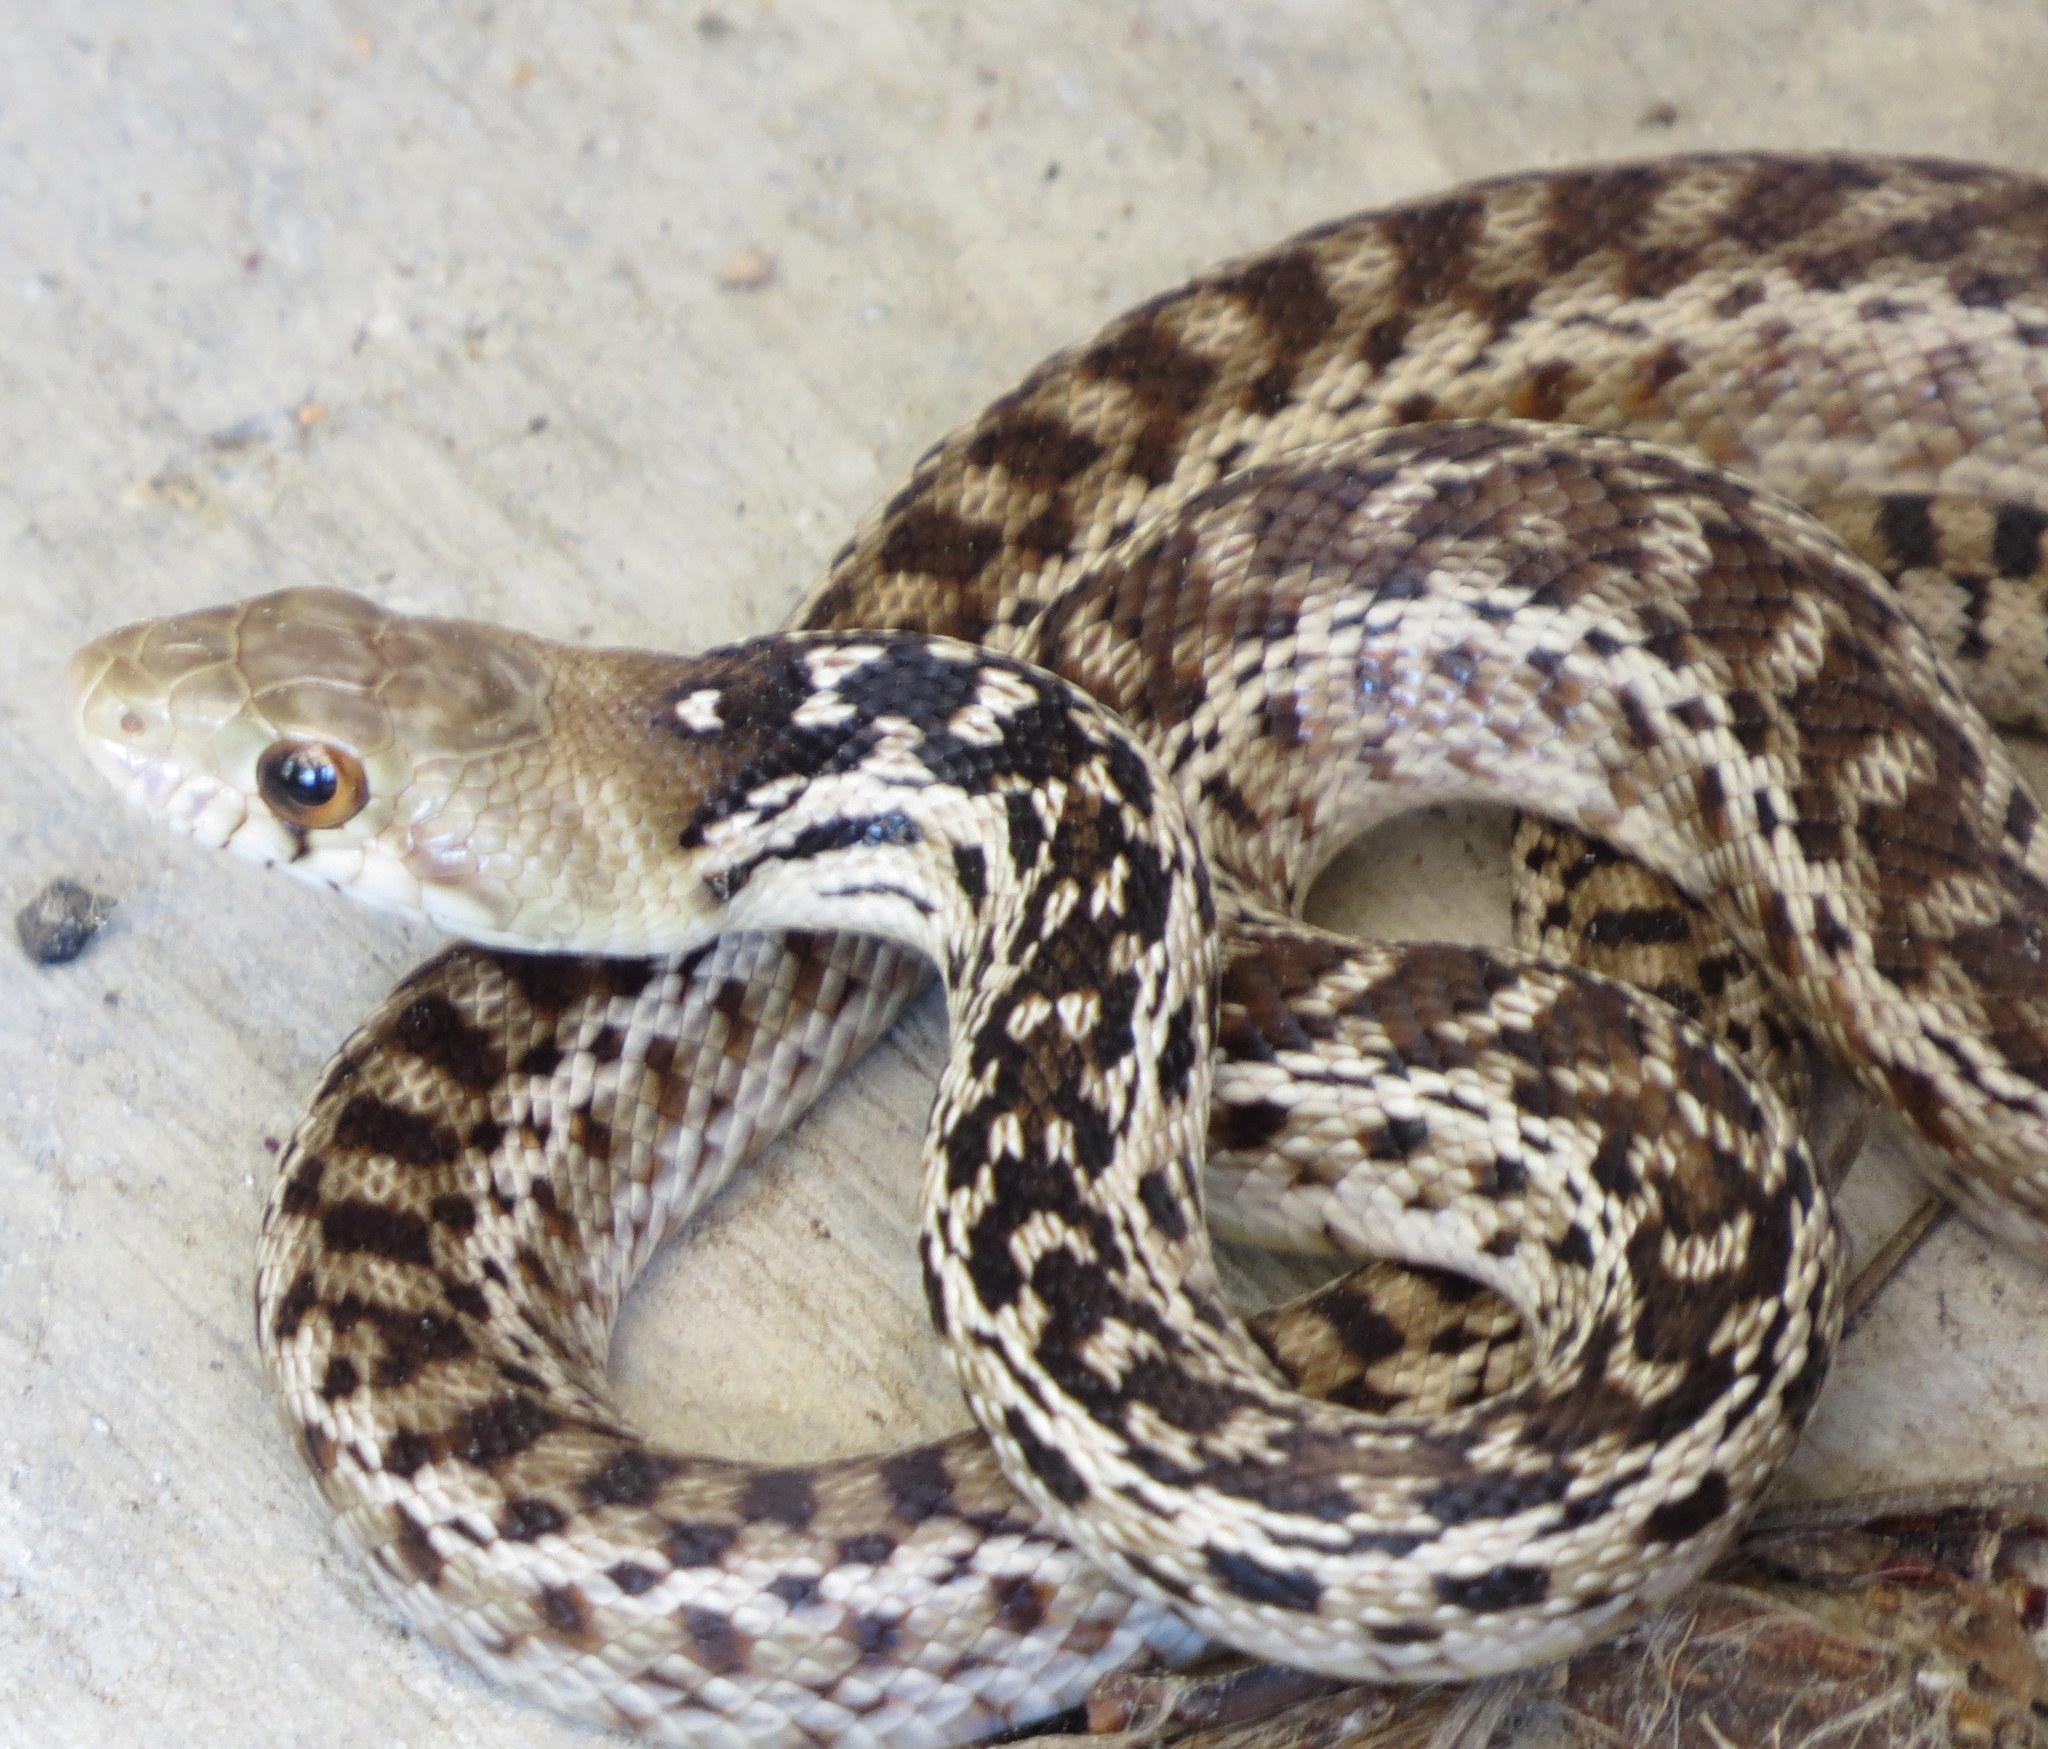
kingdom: Animalia
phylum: Chordata
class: Squamata
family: Colubridae
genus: Pituophis
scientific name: Pituophis catenifer
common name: Gopher snake
